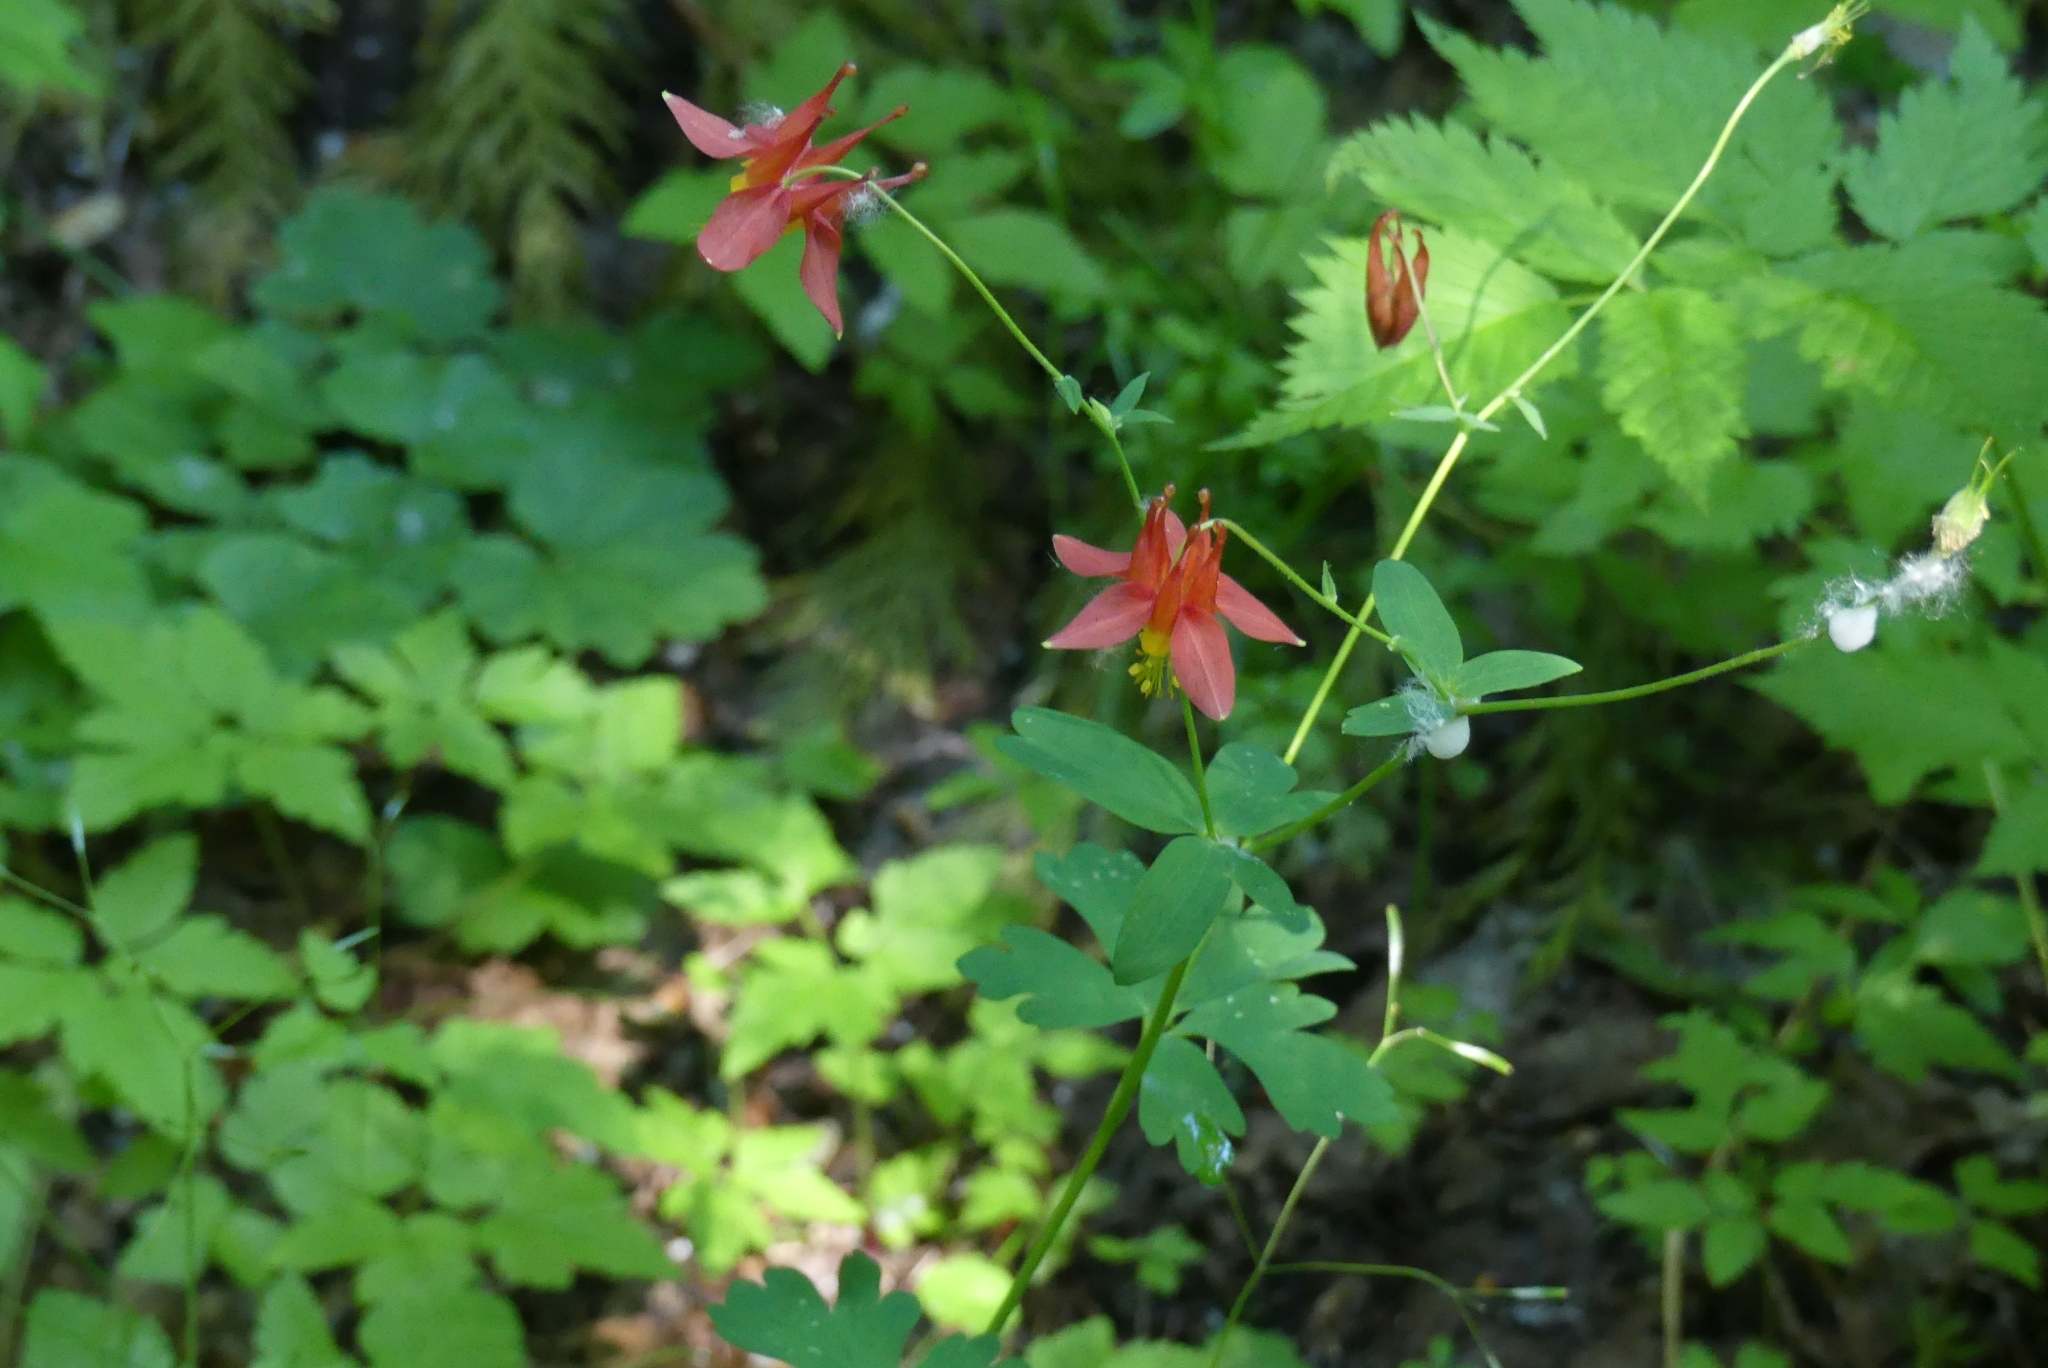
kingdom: Plantae
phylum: Tracheophyta
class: Magnoliopsida
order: Ranunculales
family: Ranunculaceae
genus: Aquilegia
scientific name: Aquilegia formosa
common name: Sitka columbine
